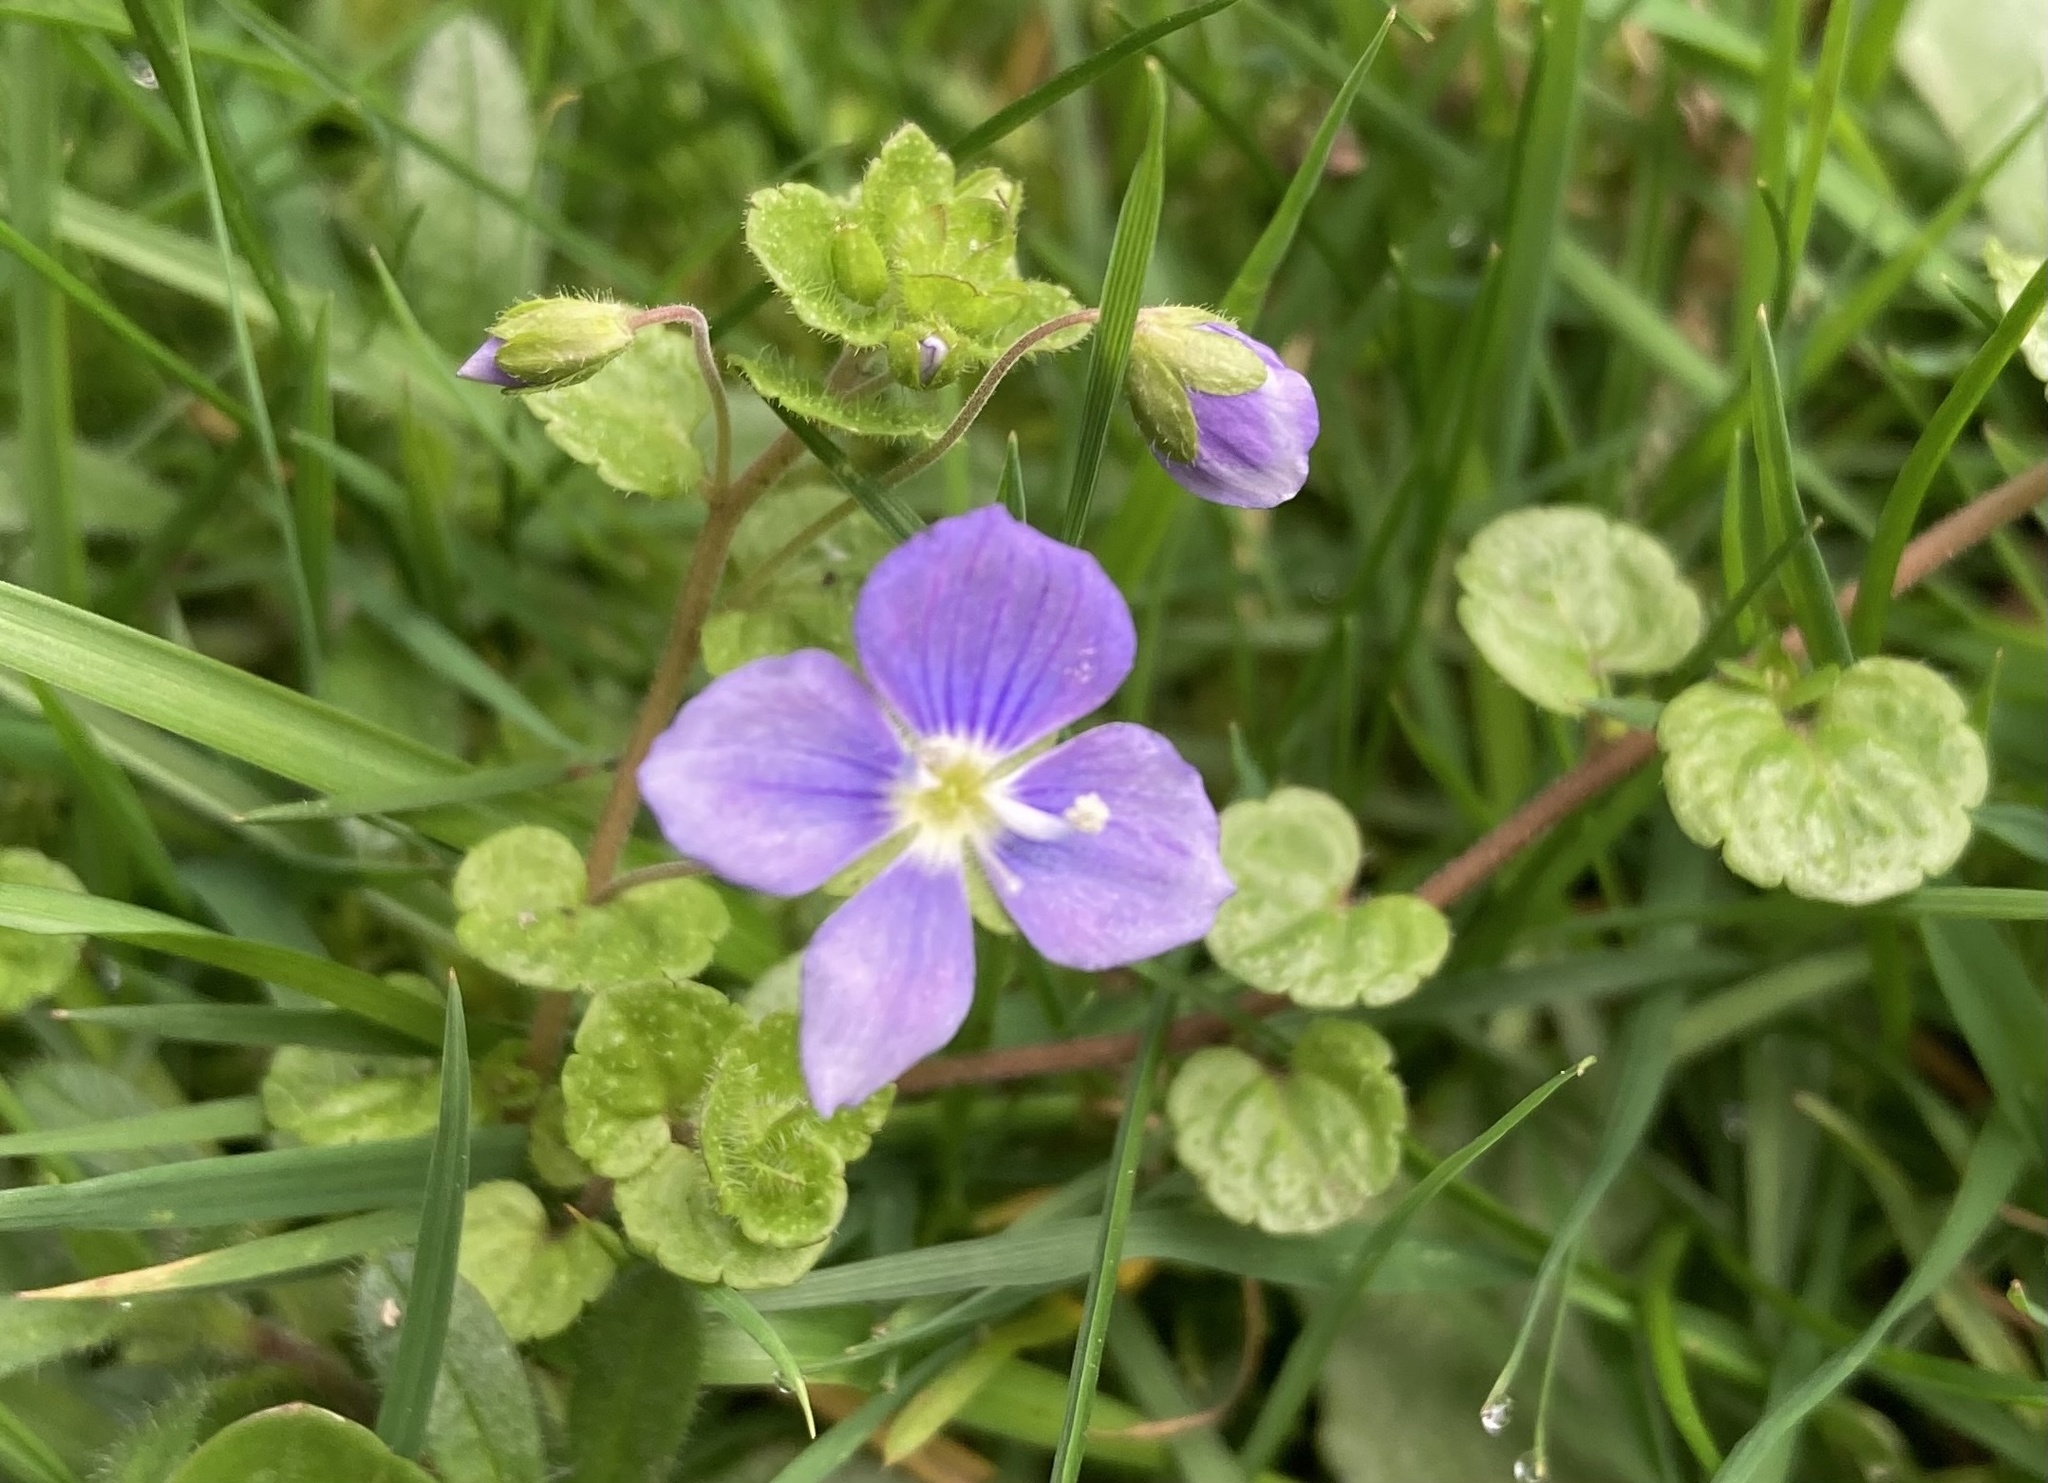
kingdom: Plantae
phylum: Tracheophyta
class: Magnoliopsida
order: Lamiales
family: Plantaginaceae
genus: Veronica
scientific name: Veronica filiformis
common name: Slender speedwell
